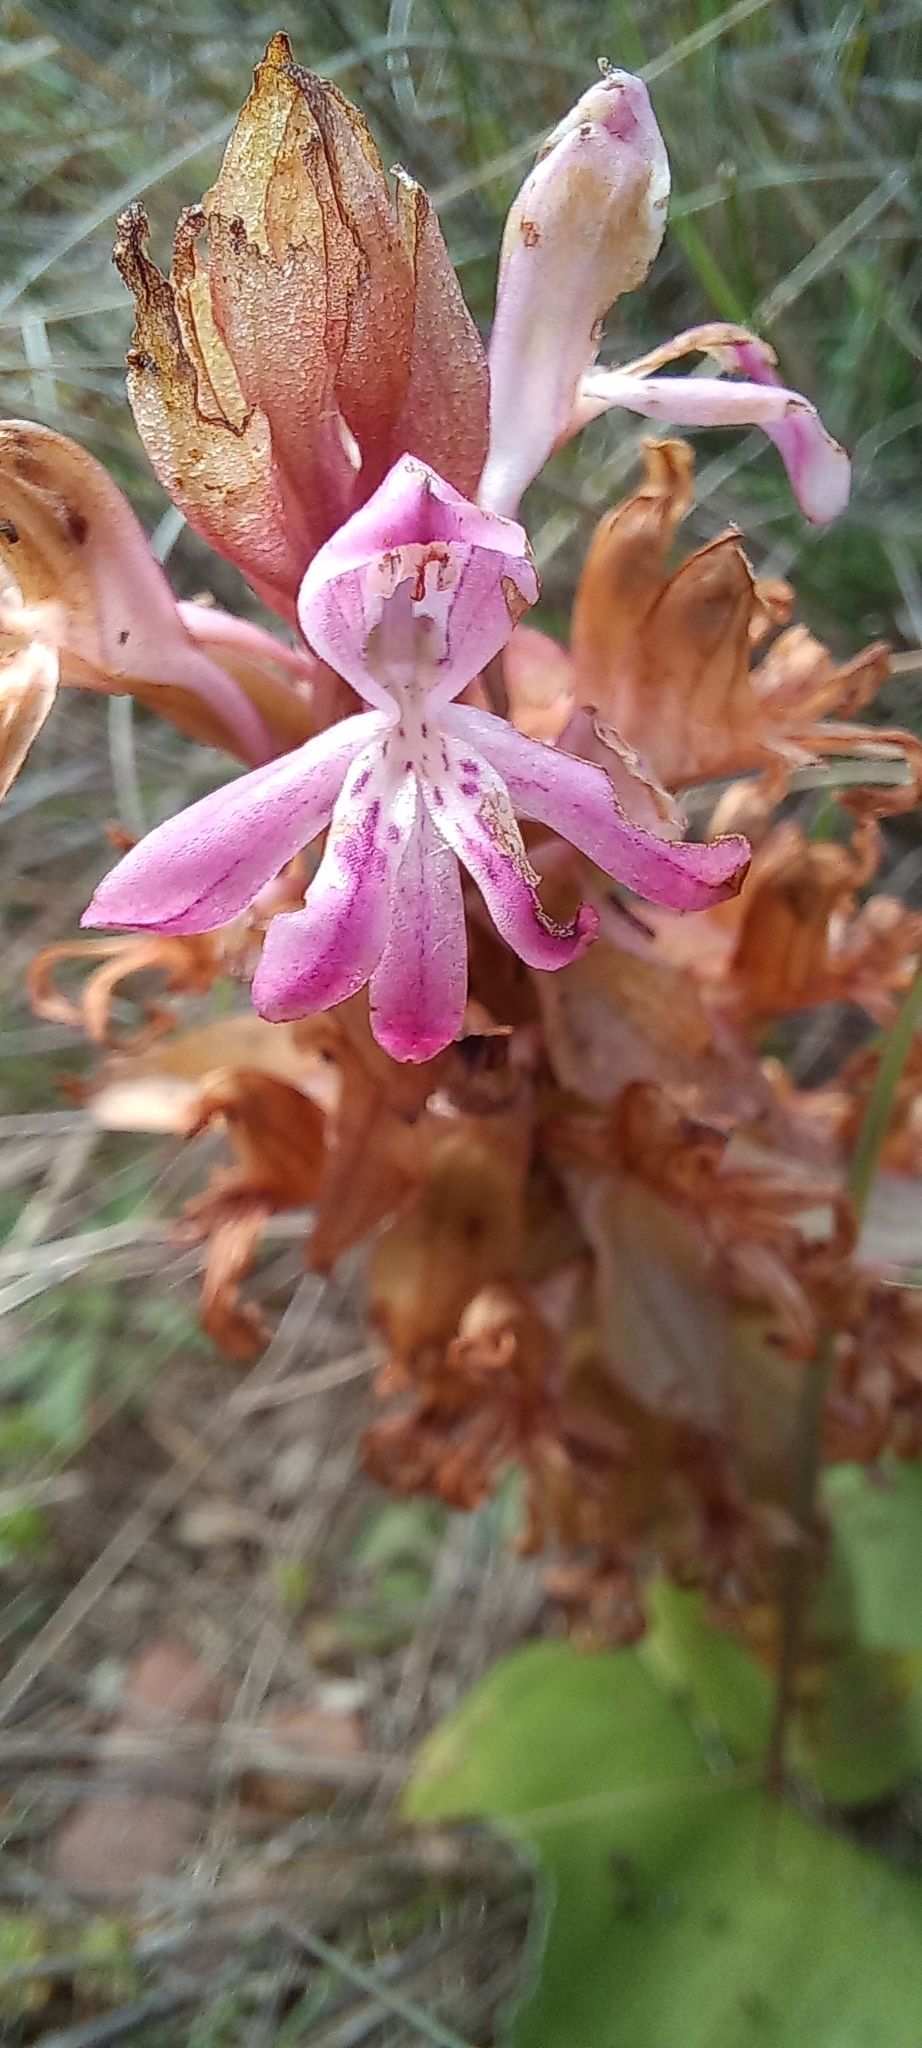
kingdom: Plantae
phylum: Tracheophyta
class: Liliopsida
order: Asparagales
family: Orchidaceae
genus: Satyrium
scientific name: Satyrium erectum
